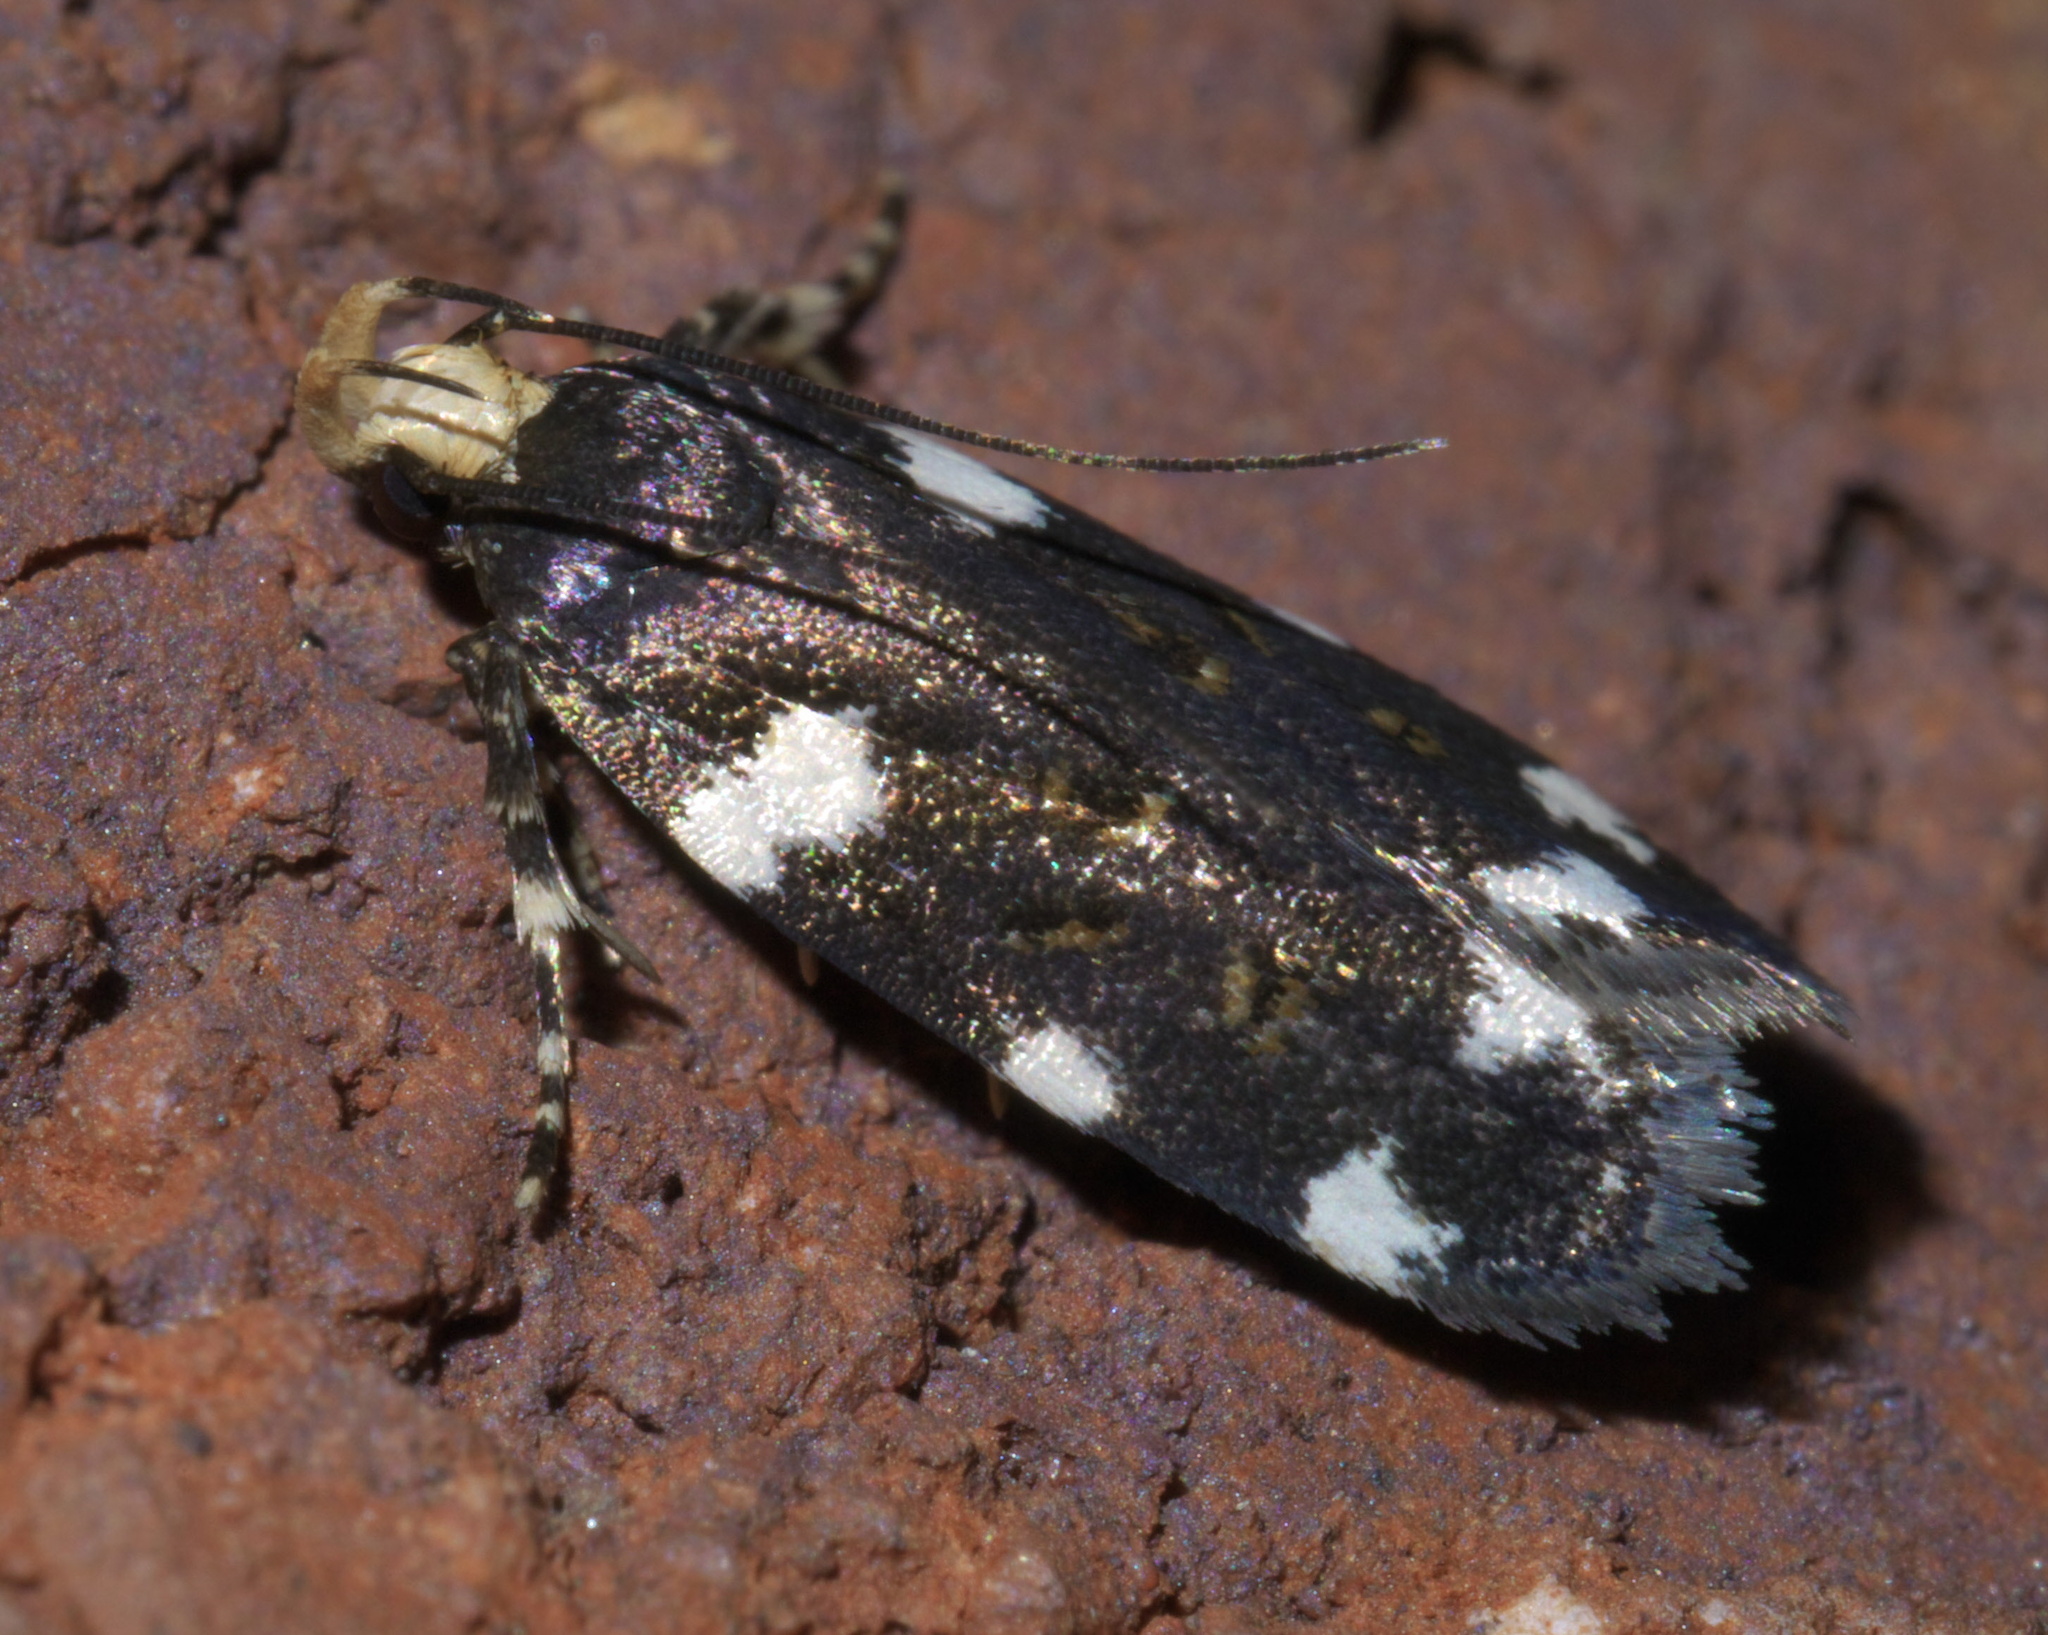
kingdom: Animalia
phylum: Arthropoda
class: Insecta
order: Lepidoptera
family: Gelechiidae
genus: Fascista
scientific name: Fascista cercerisella
